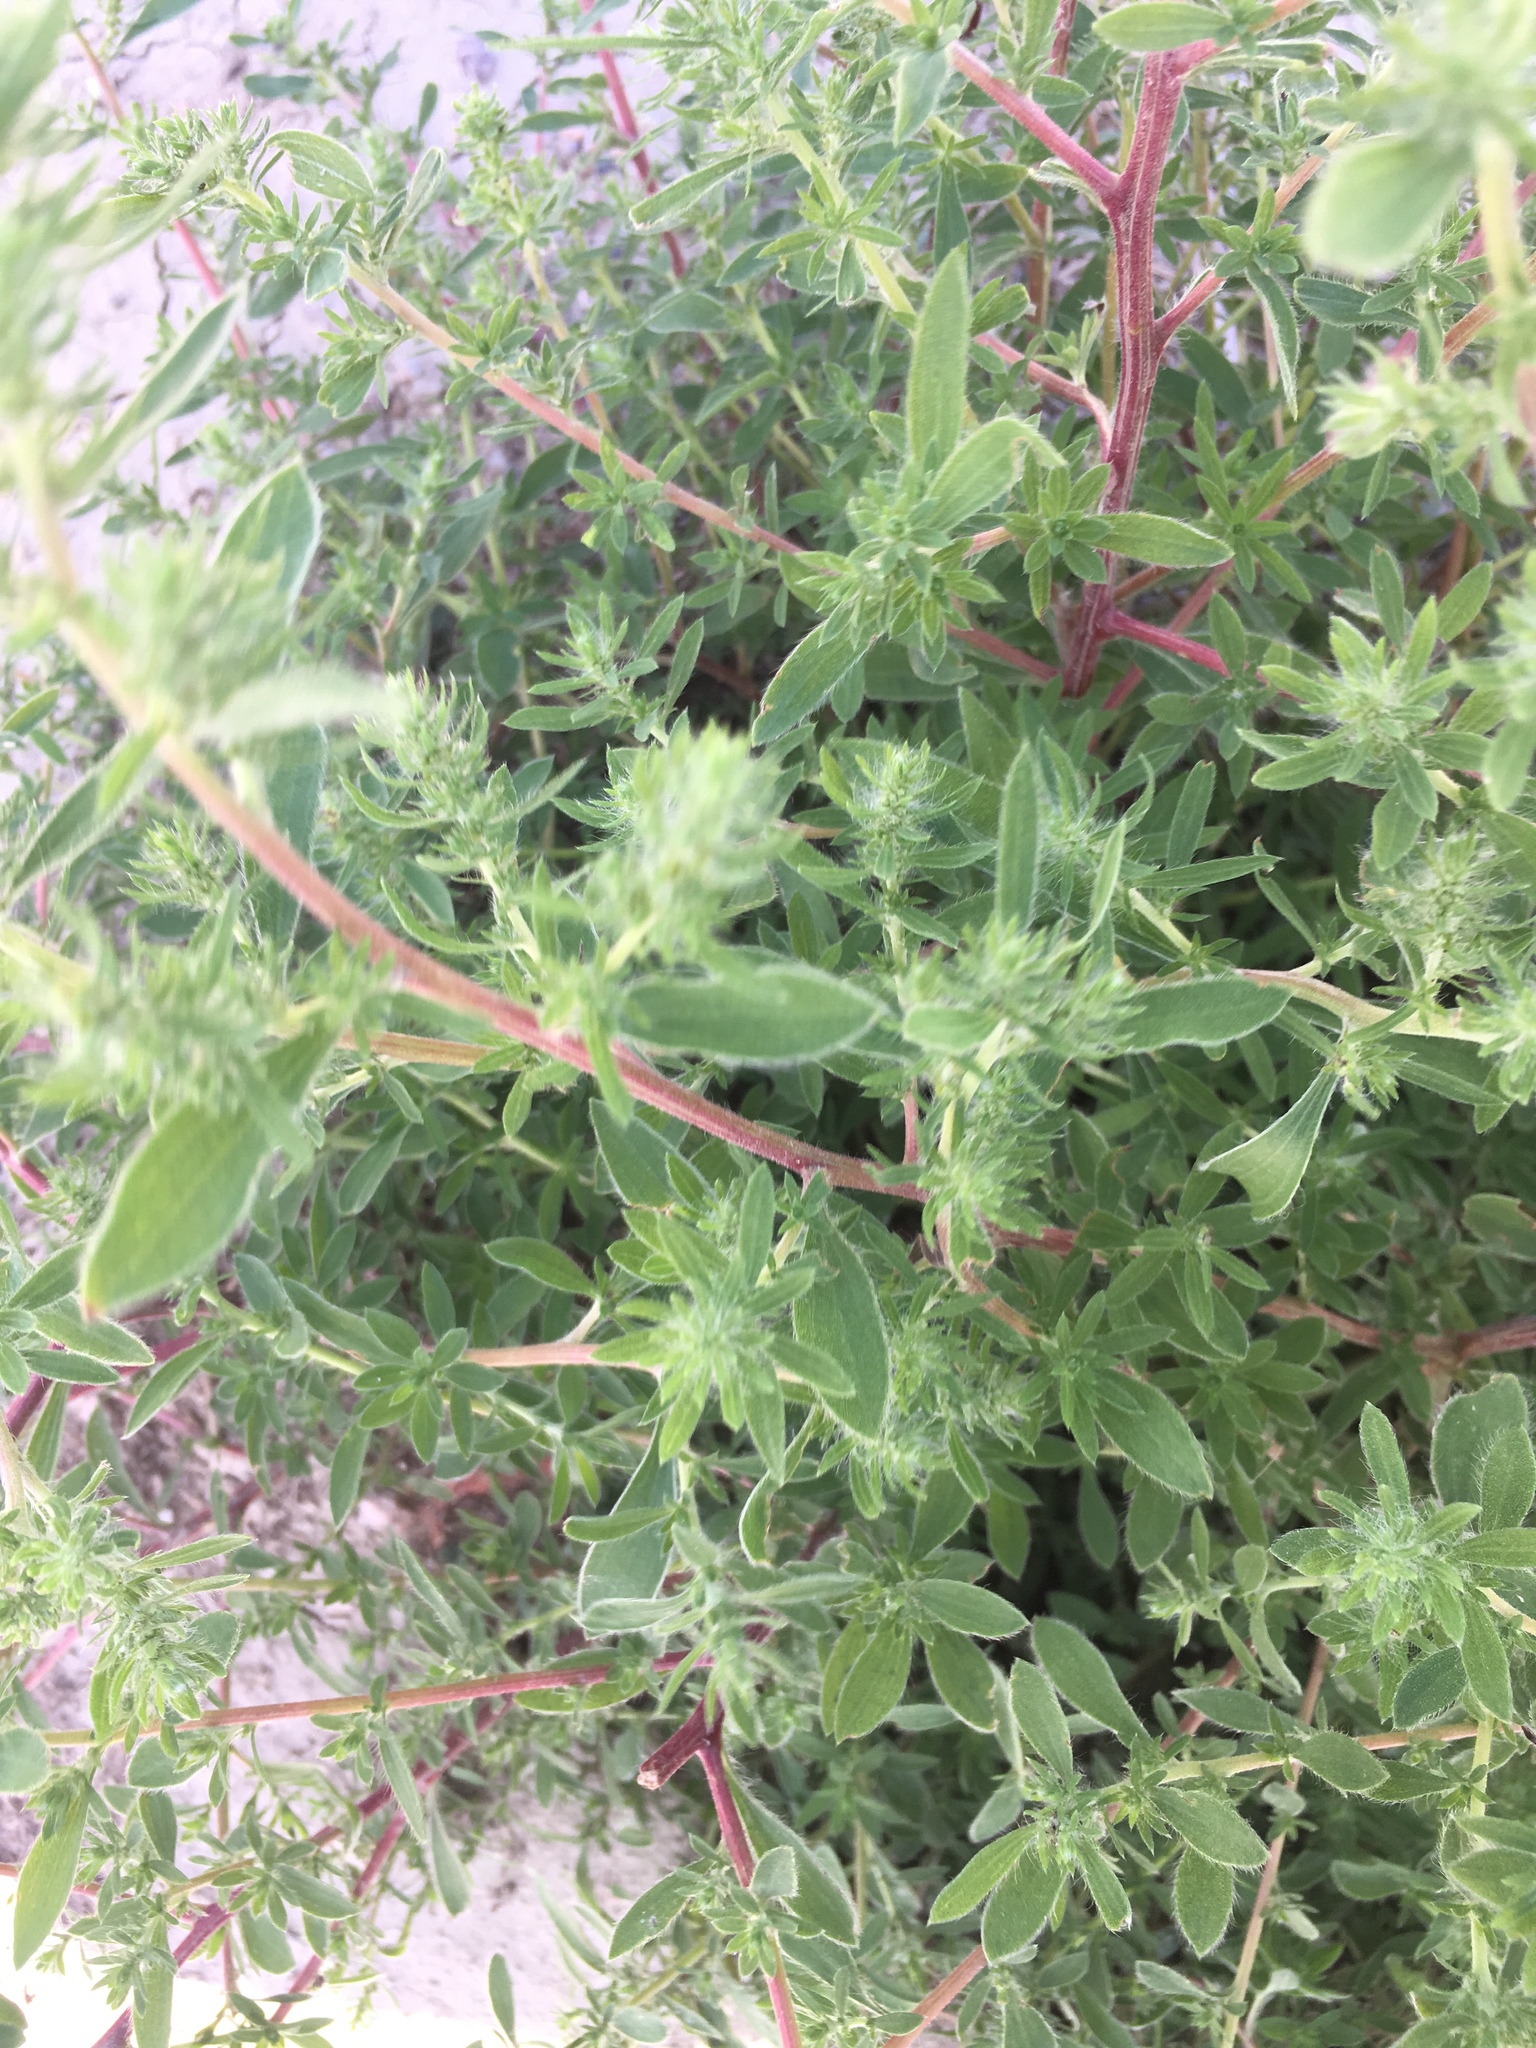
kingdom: Plantae
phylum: Tracheophyta
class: Magnoliopsida
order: Caryophyllales
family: Amaranthaceae
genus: Bassia
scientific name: Bassia scoparia
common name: Belvedere
